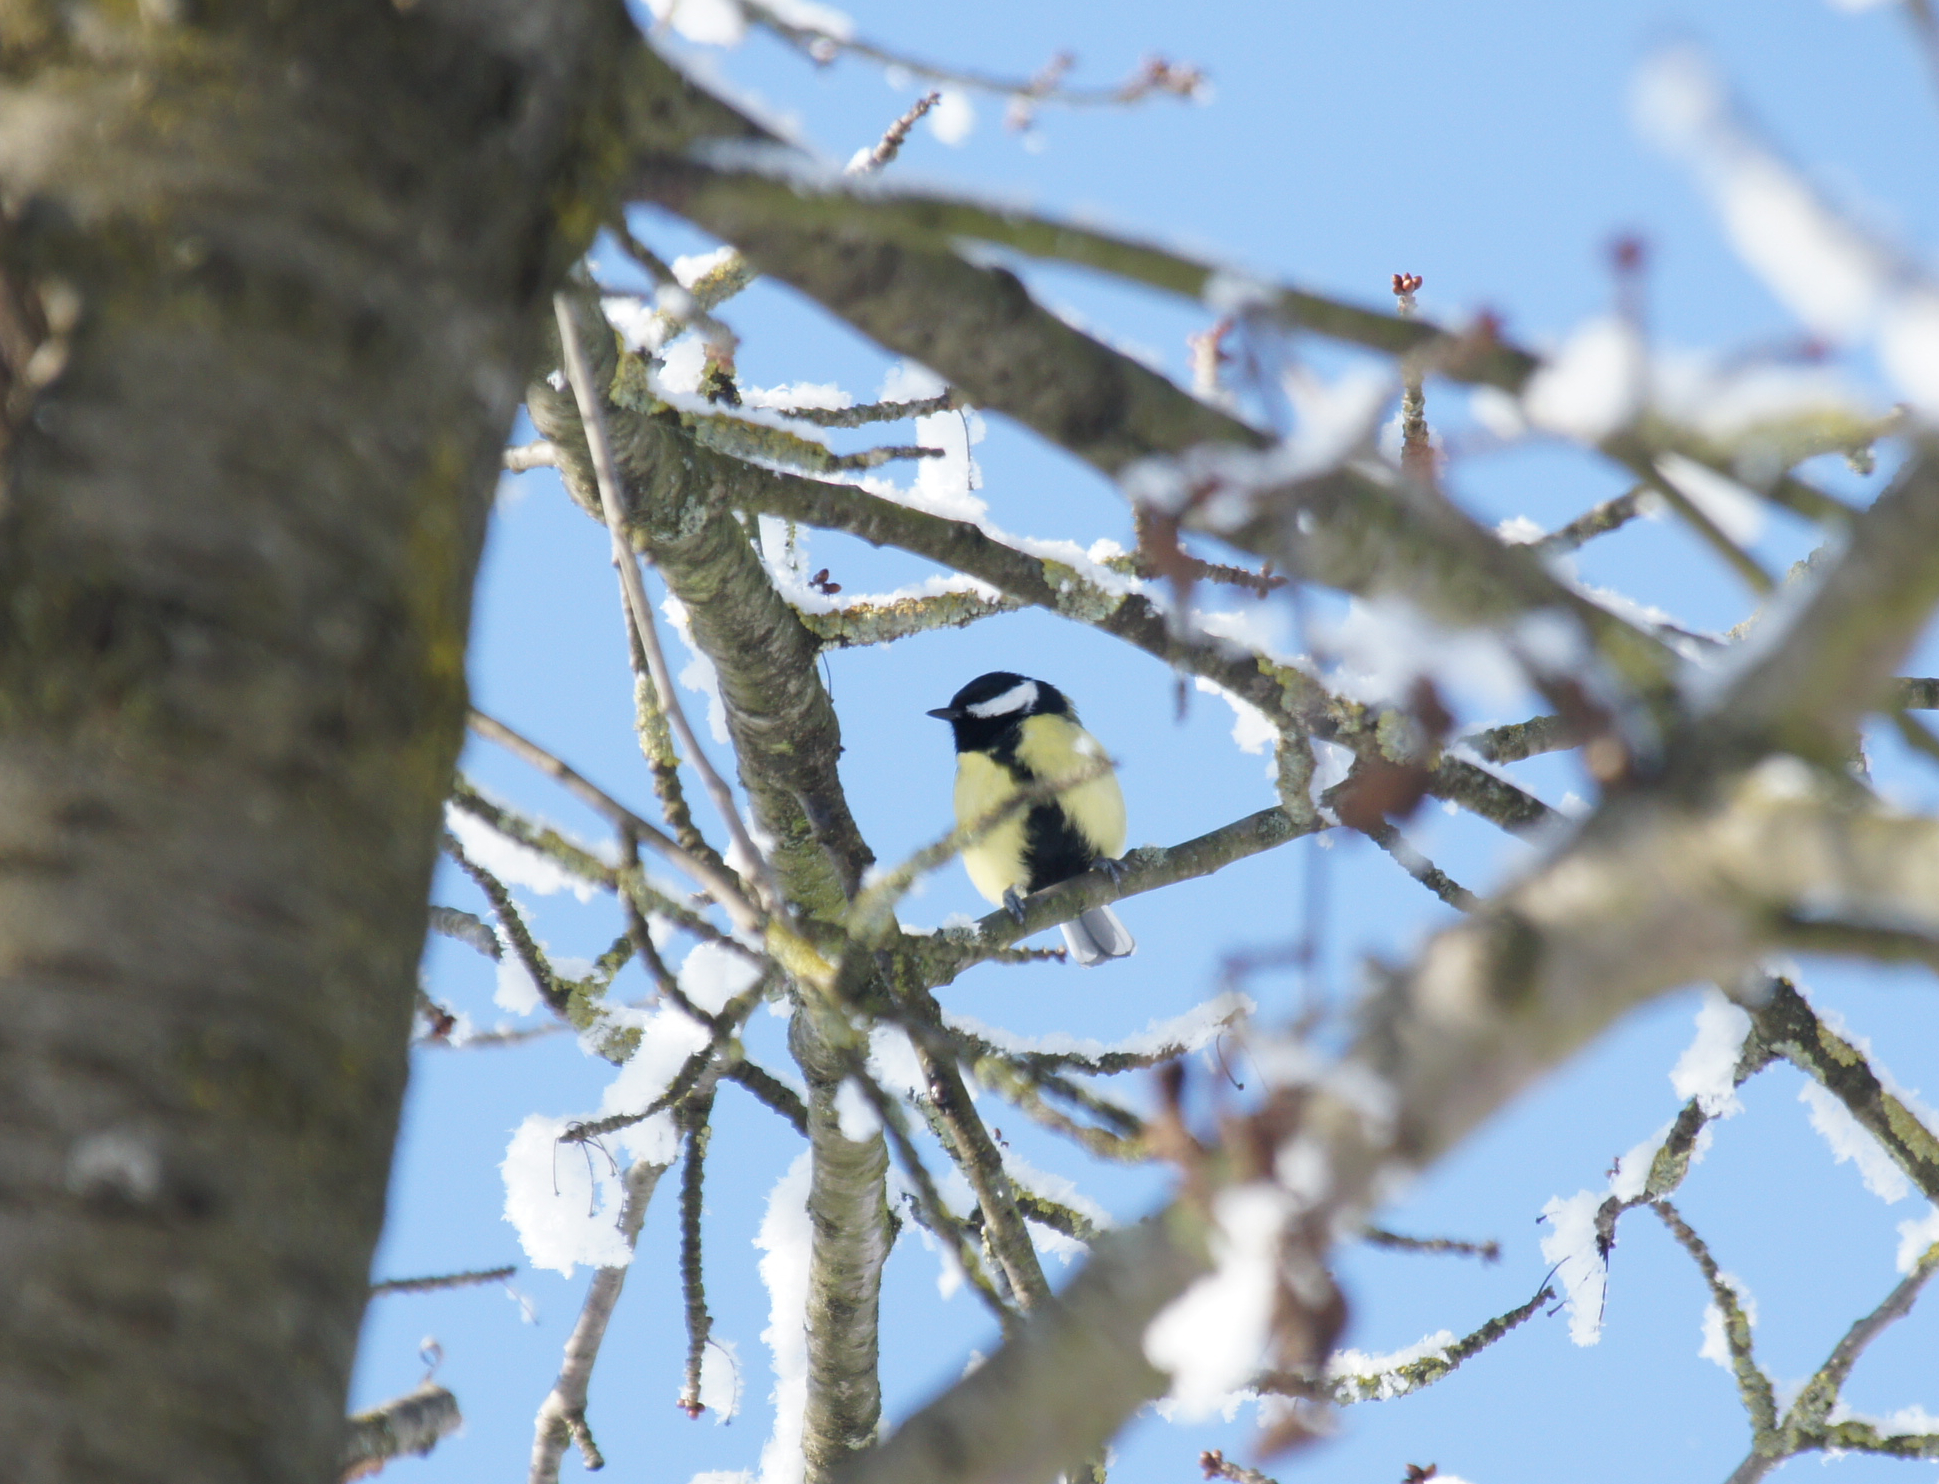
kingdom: Animalia
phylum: Chordata
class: Aves
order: Passeriformes
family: Paridae
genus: Parus
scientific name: Parus major
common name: Great tit
